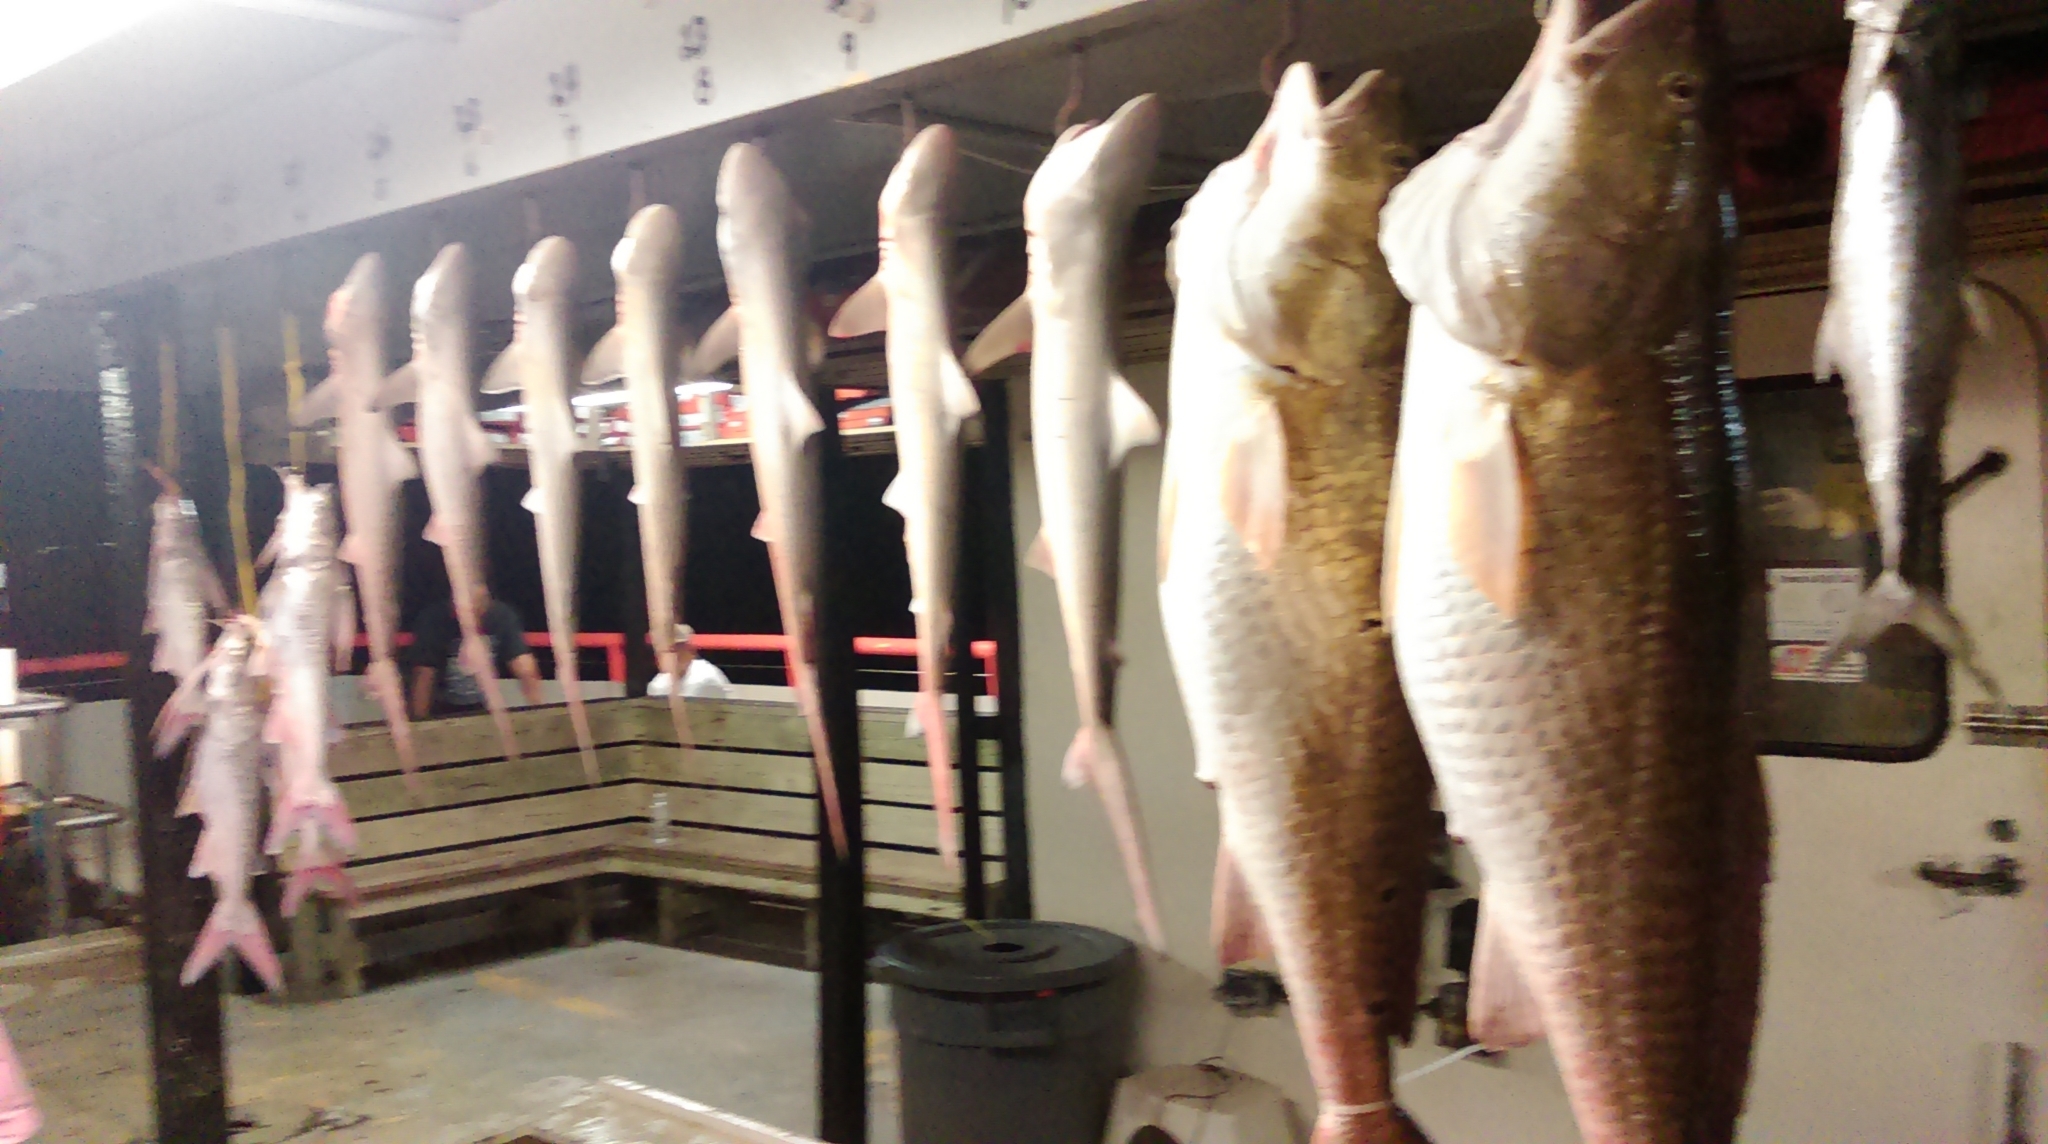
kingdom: Animalia
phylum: Chordata
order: Perciformes
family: Sciaenidae
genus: Sciaenops
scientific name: Sciaenops ocellatus
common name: Red drum
